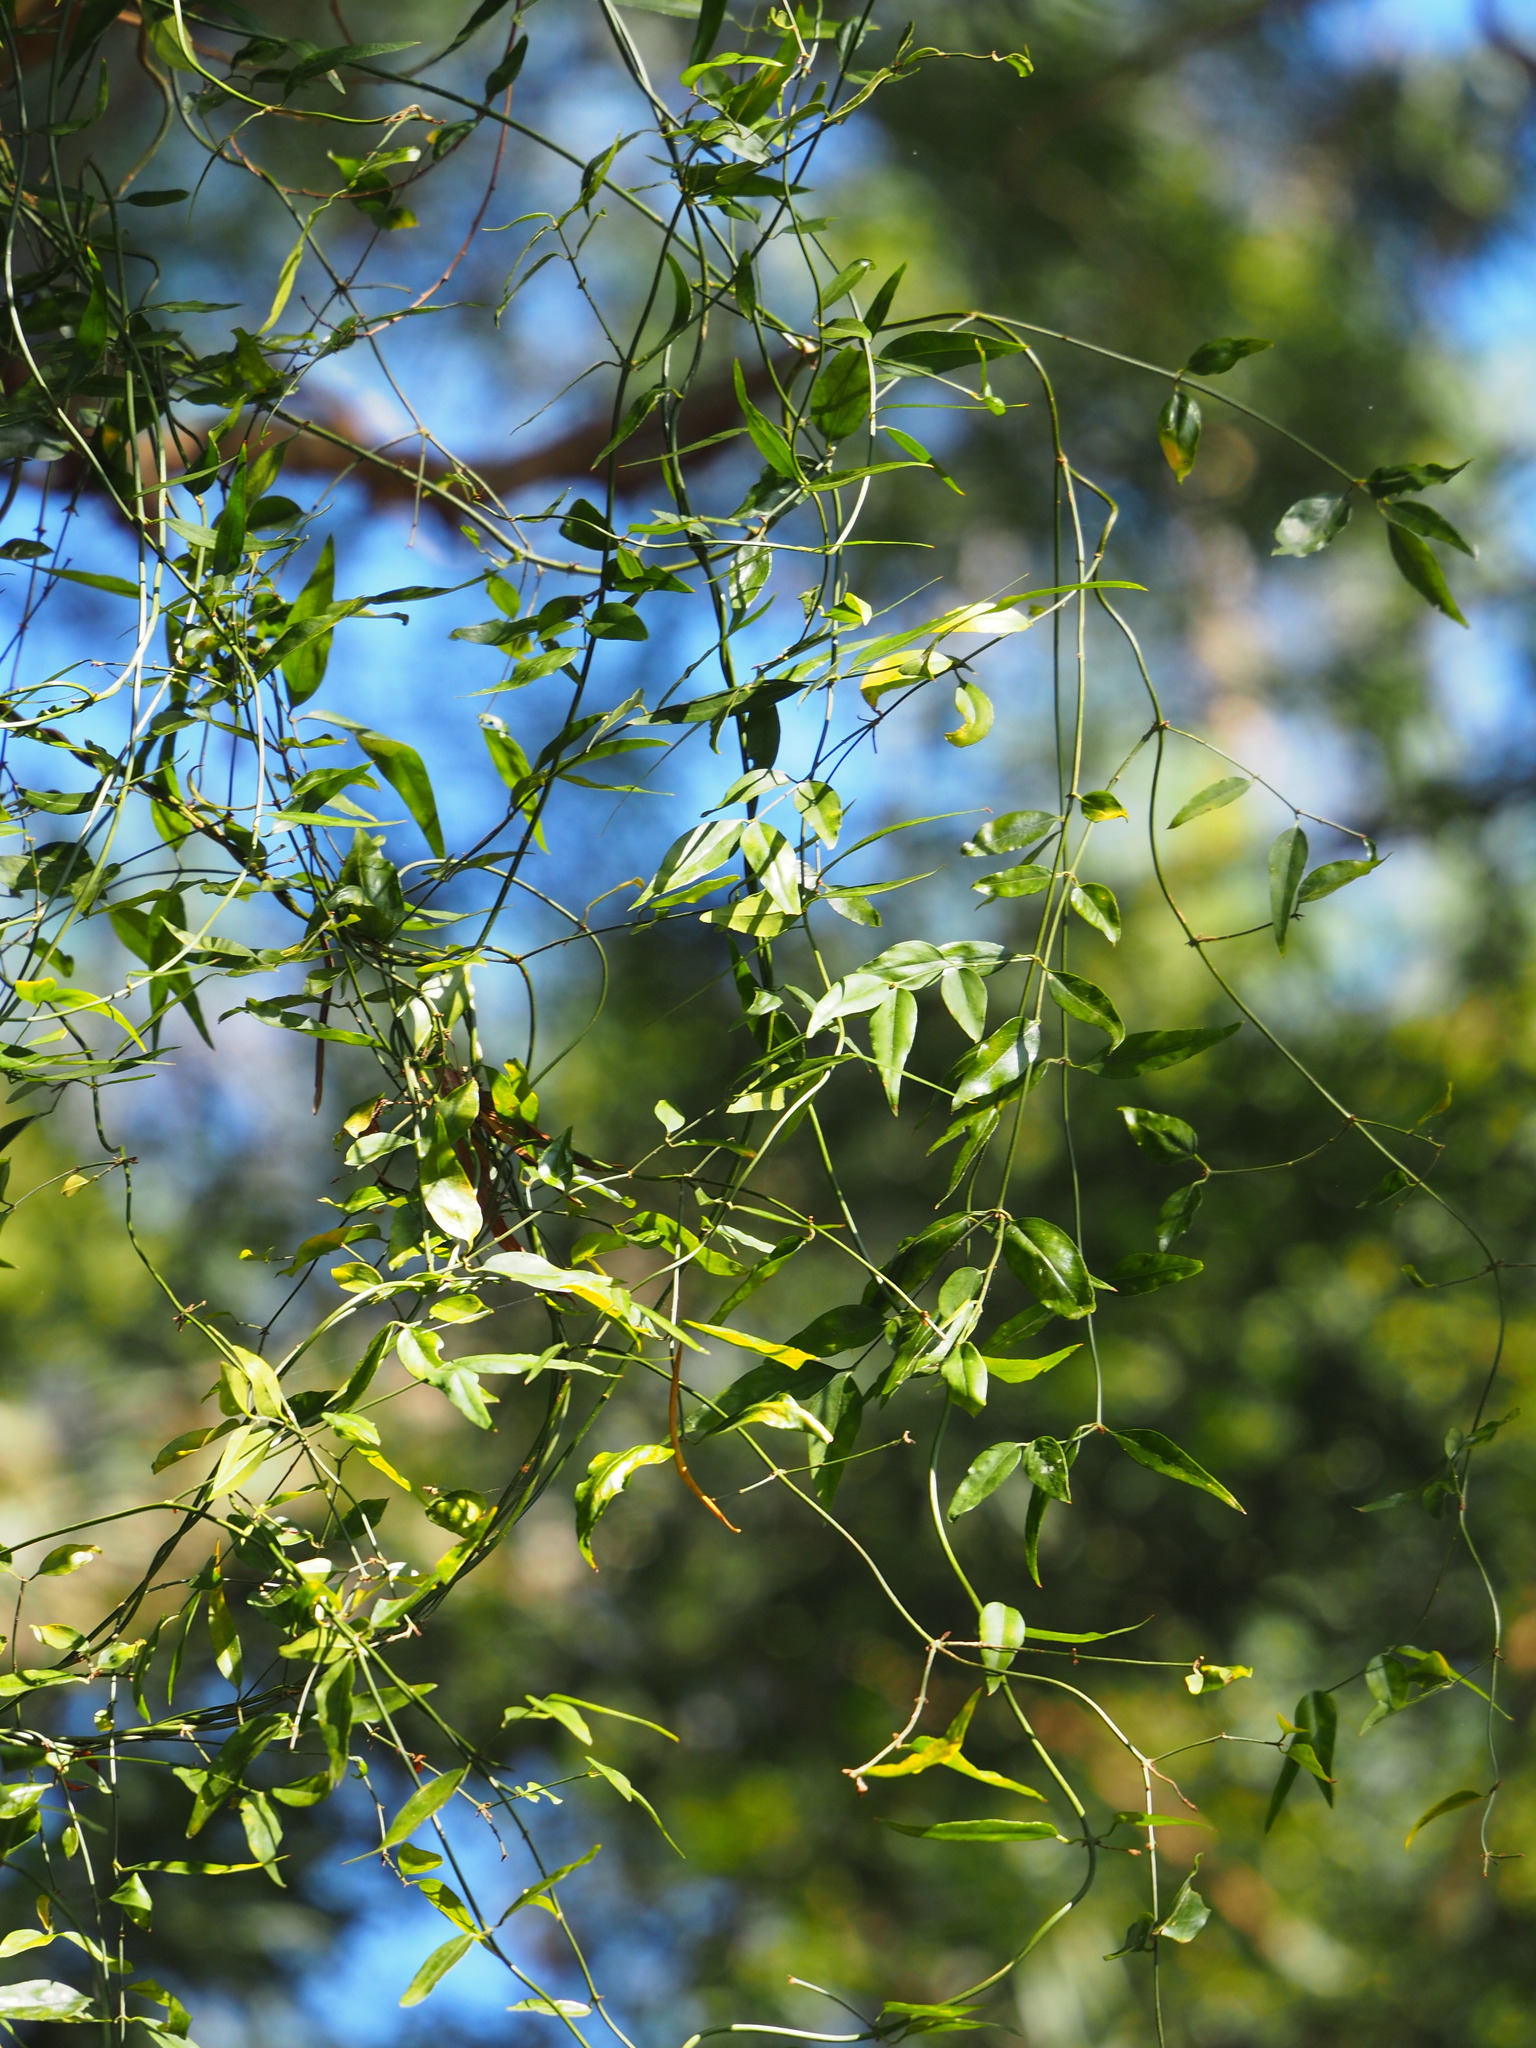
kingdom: Plantae
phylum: Tracheophyta
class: Magnoliopsida
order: Lamiales
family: Oleaceae
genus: Jasminum
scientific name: Jasminum nervosum
